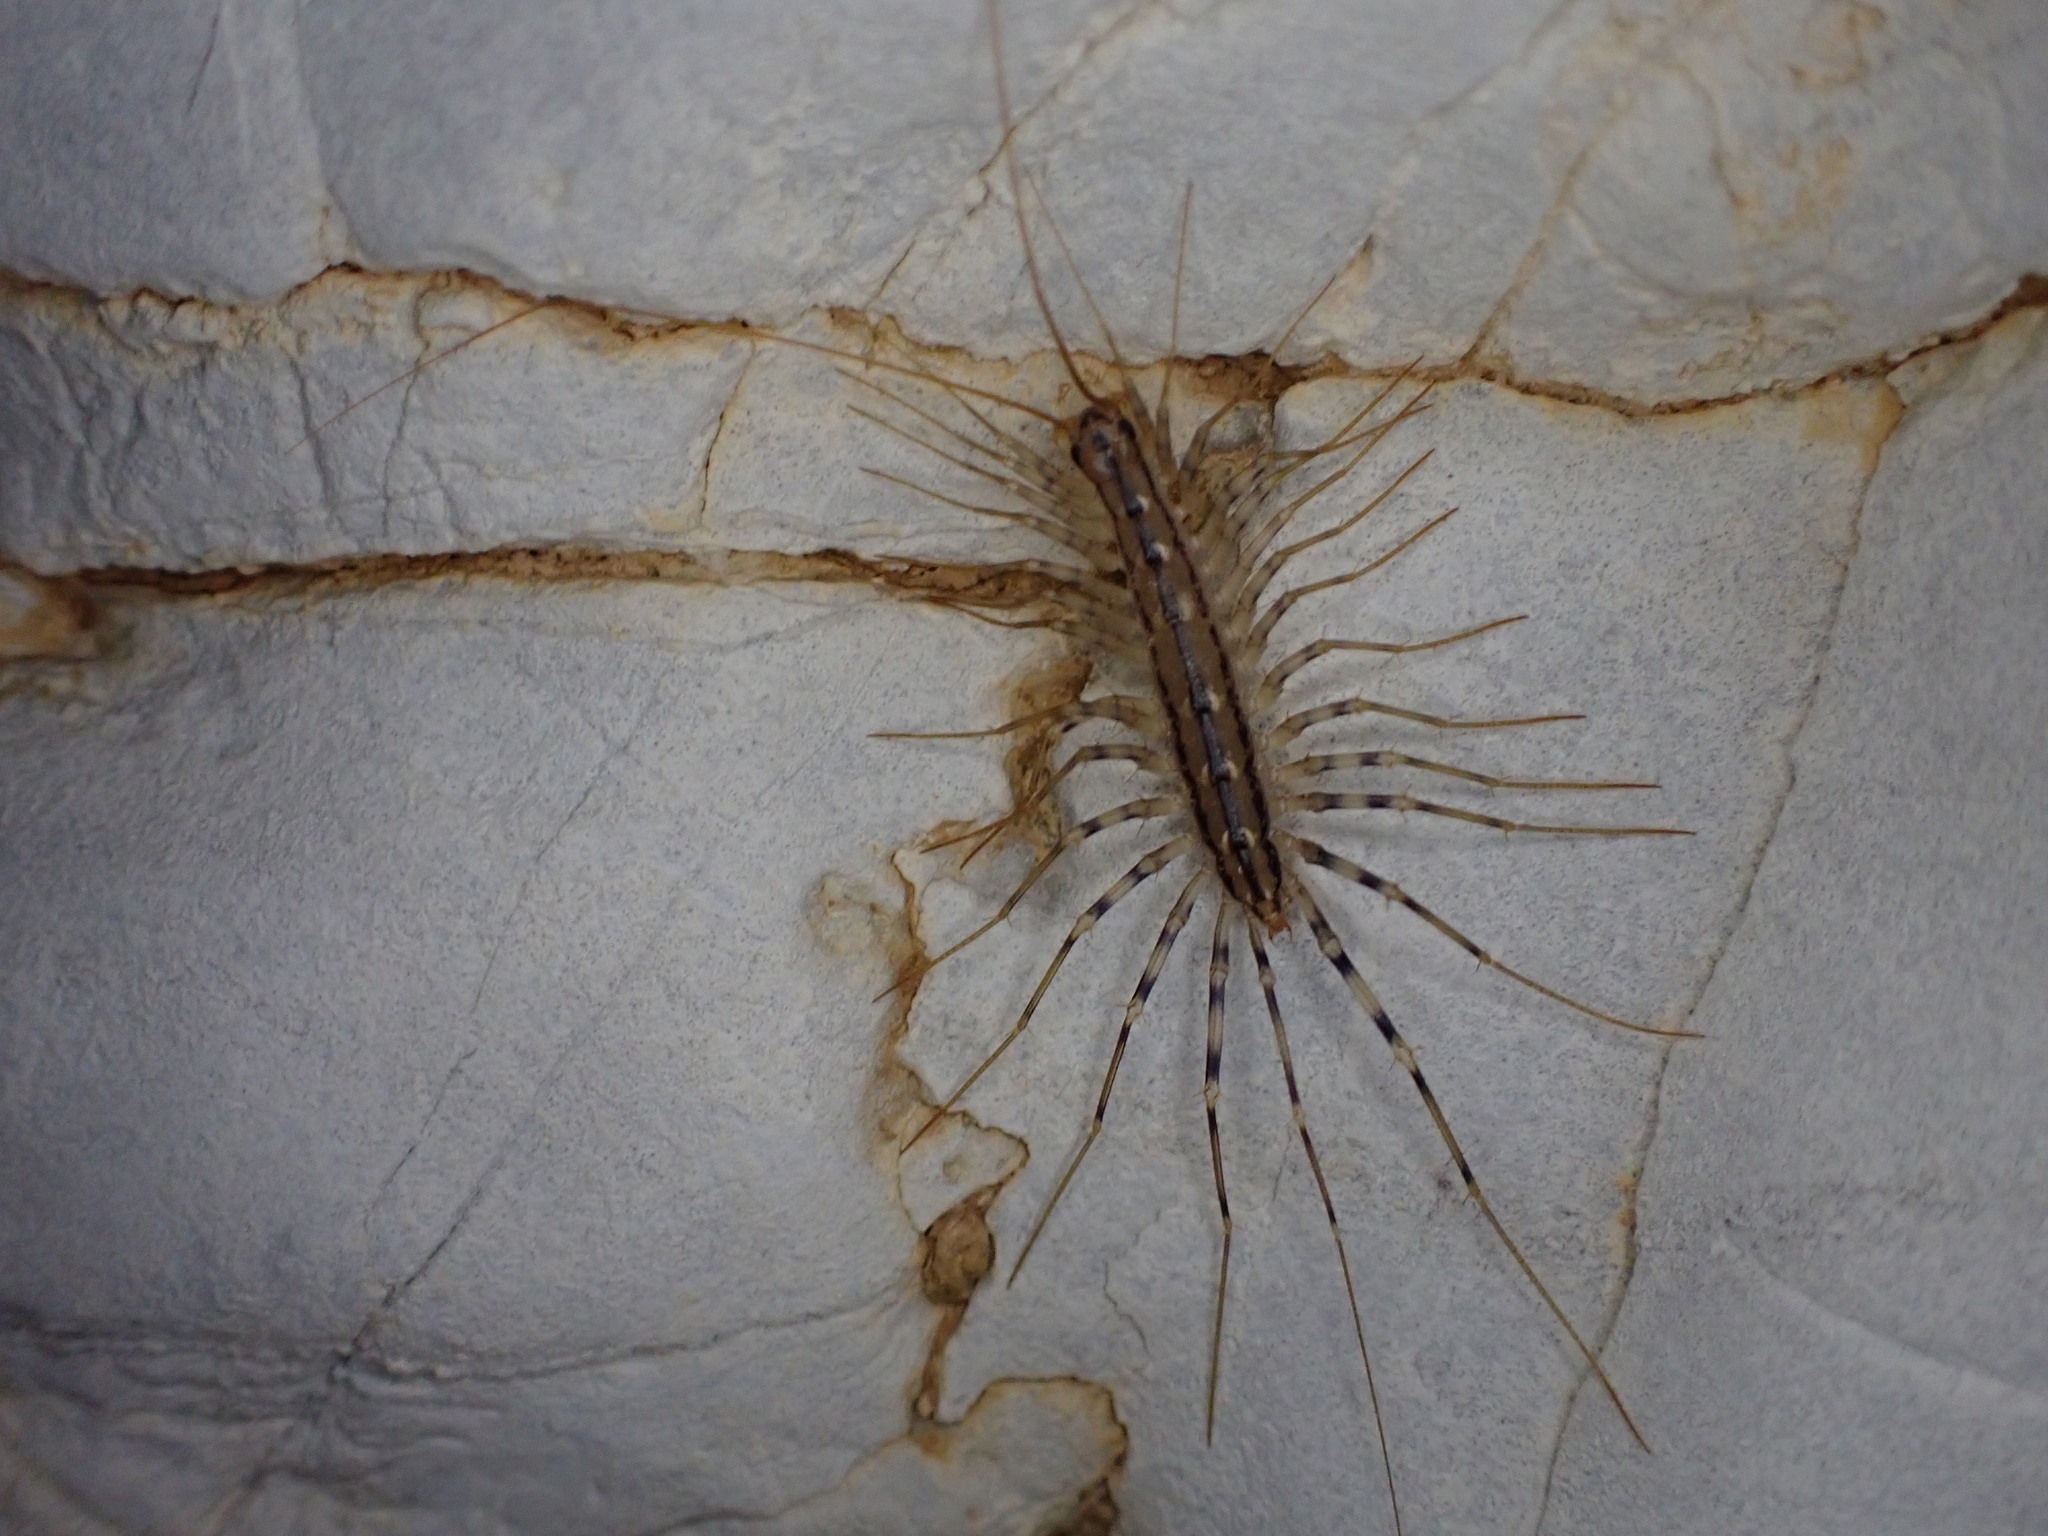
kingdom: Animalia
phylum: Arthropoda
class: Chilopoda
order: Scutigeromorpha
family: Scutigeridae
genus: Scutigera
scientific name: Scutigera coleoptrata
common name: House centipede
